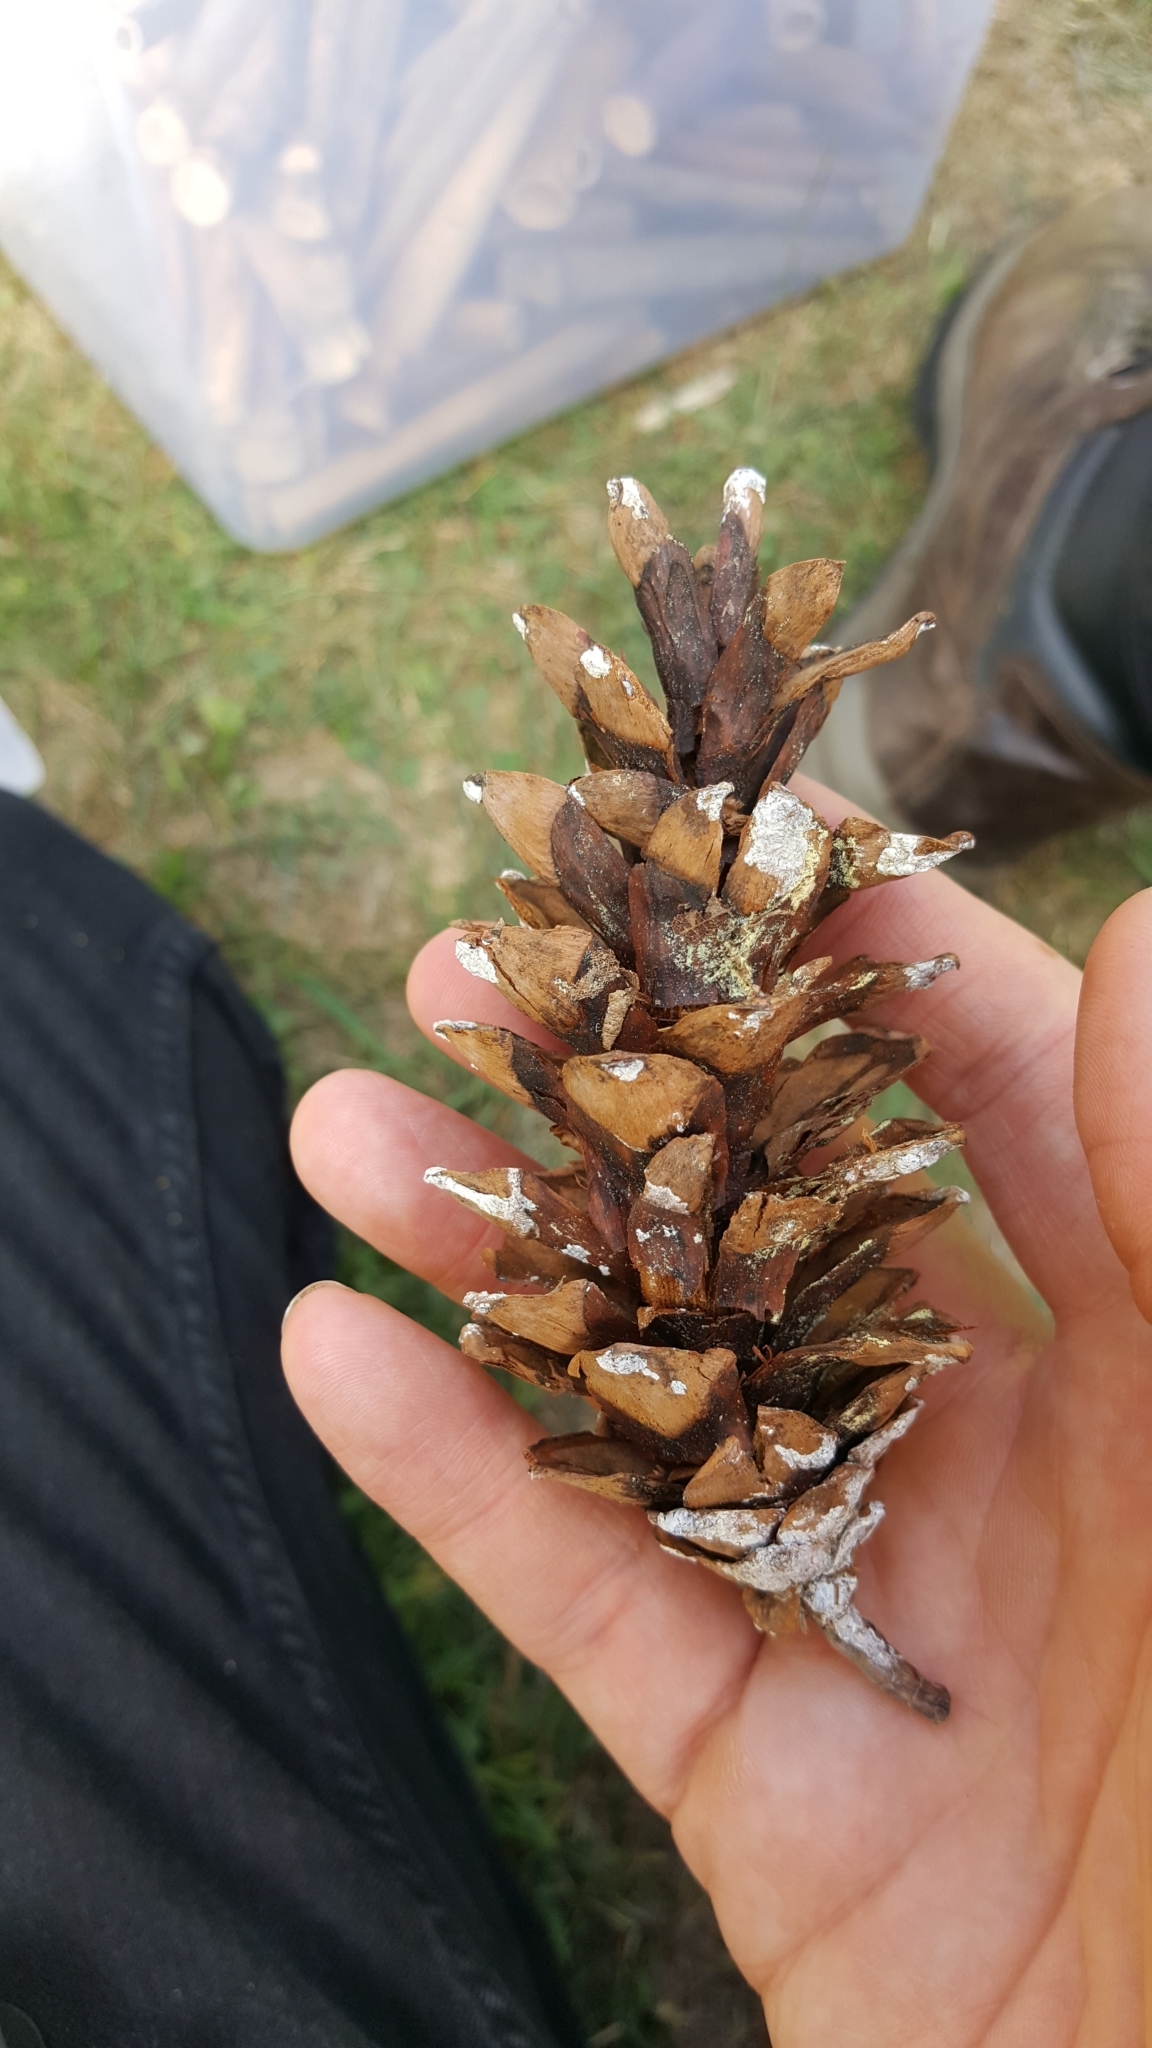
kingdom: Plantae
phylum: Tracheophyta
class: Pinopsida
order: Pinales
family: Pinaceae
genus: Pinus
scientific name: Pinus strobus
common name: Weymouth pine
